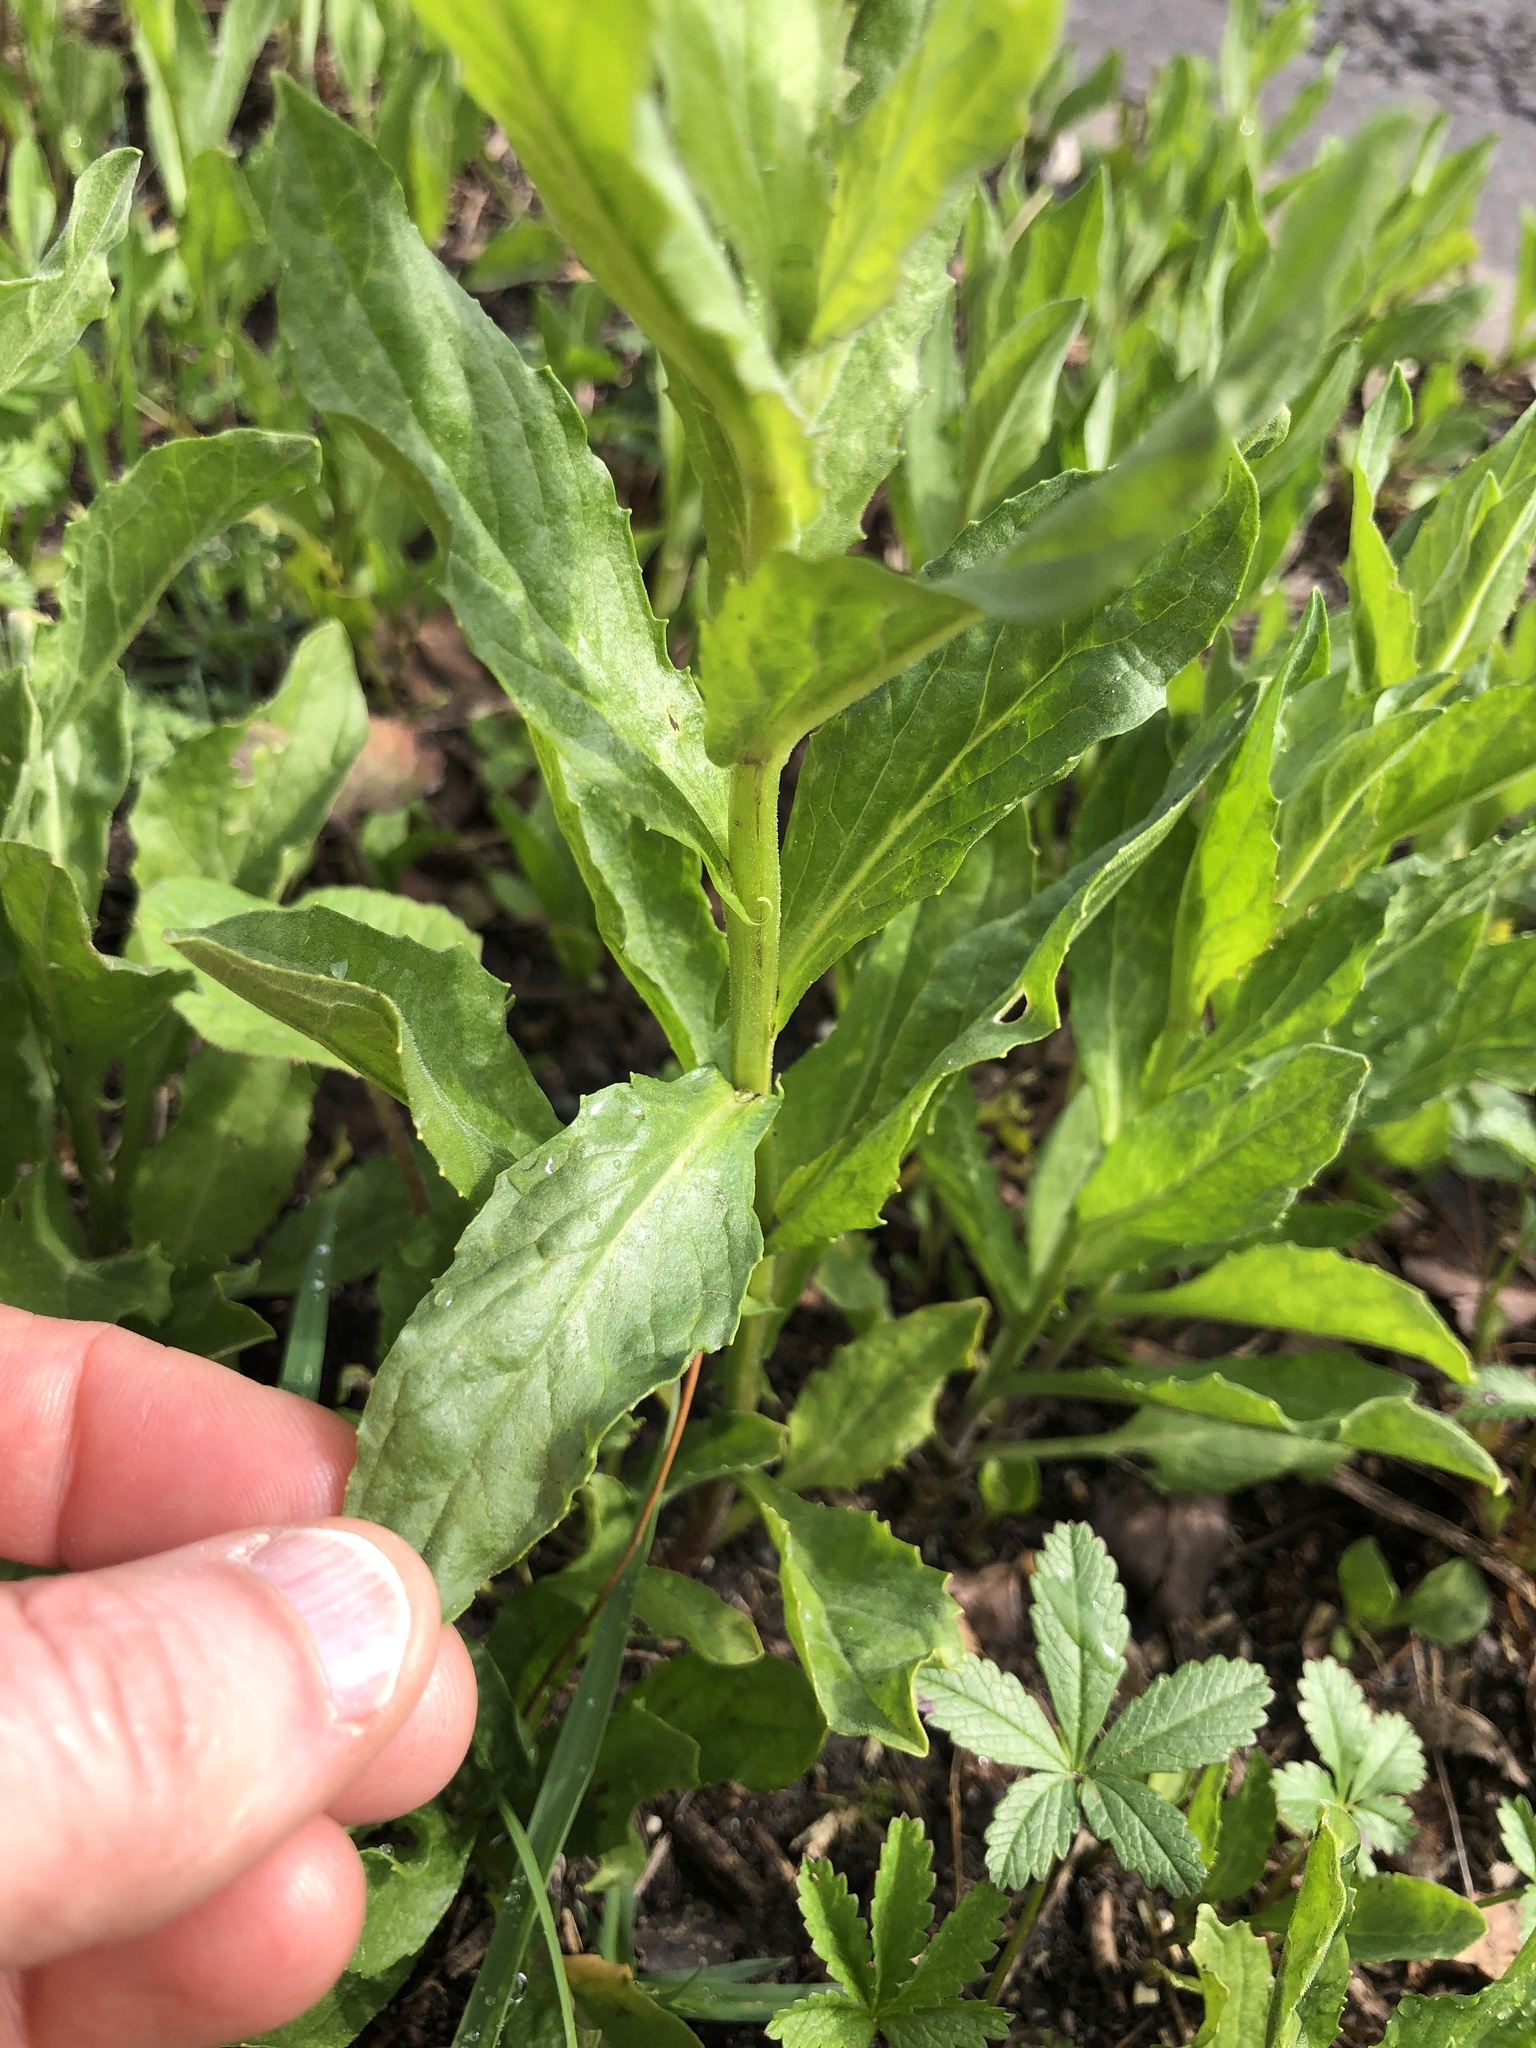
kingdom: Plantae
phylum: Tracheophyta
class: Magnoliopsida
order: Brassicales
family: Brassicaceae
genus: Lepidium
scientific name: Lepidium draba
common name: Hoary cress
